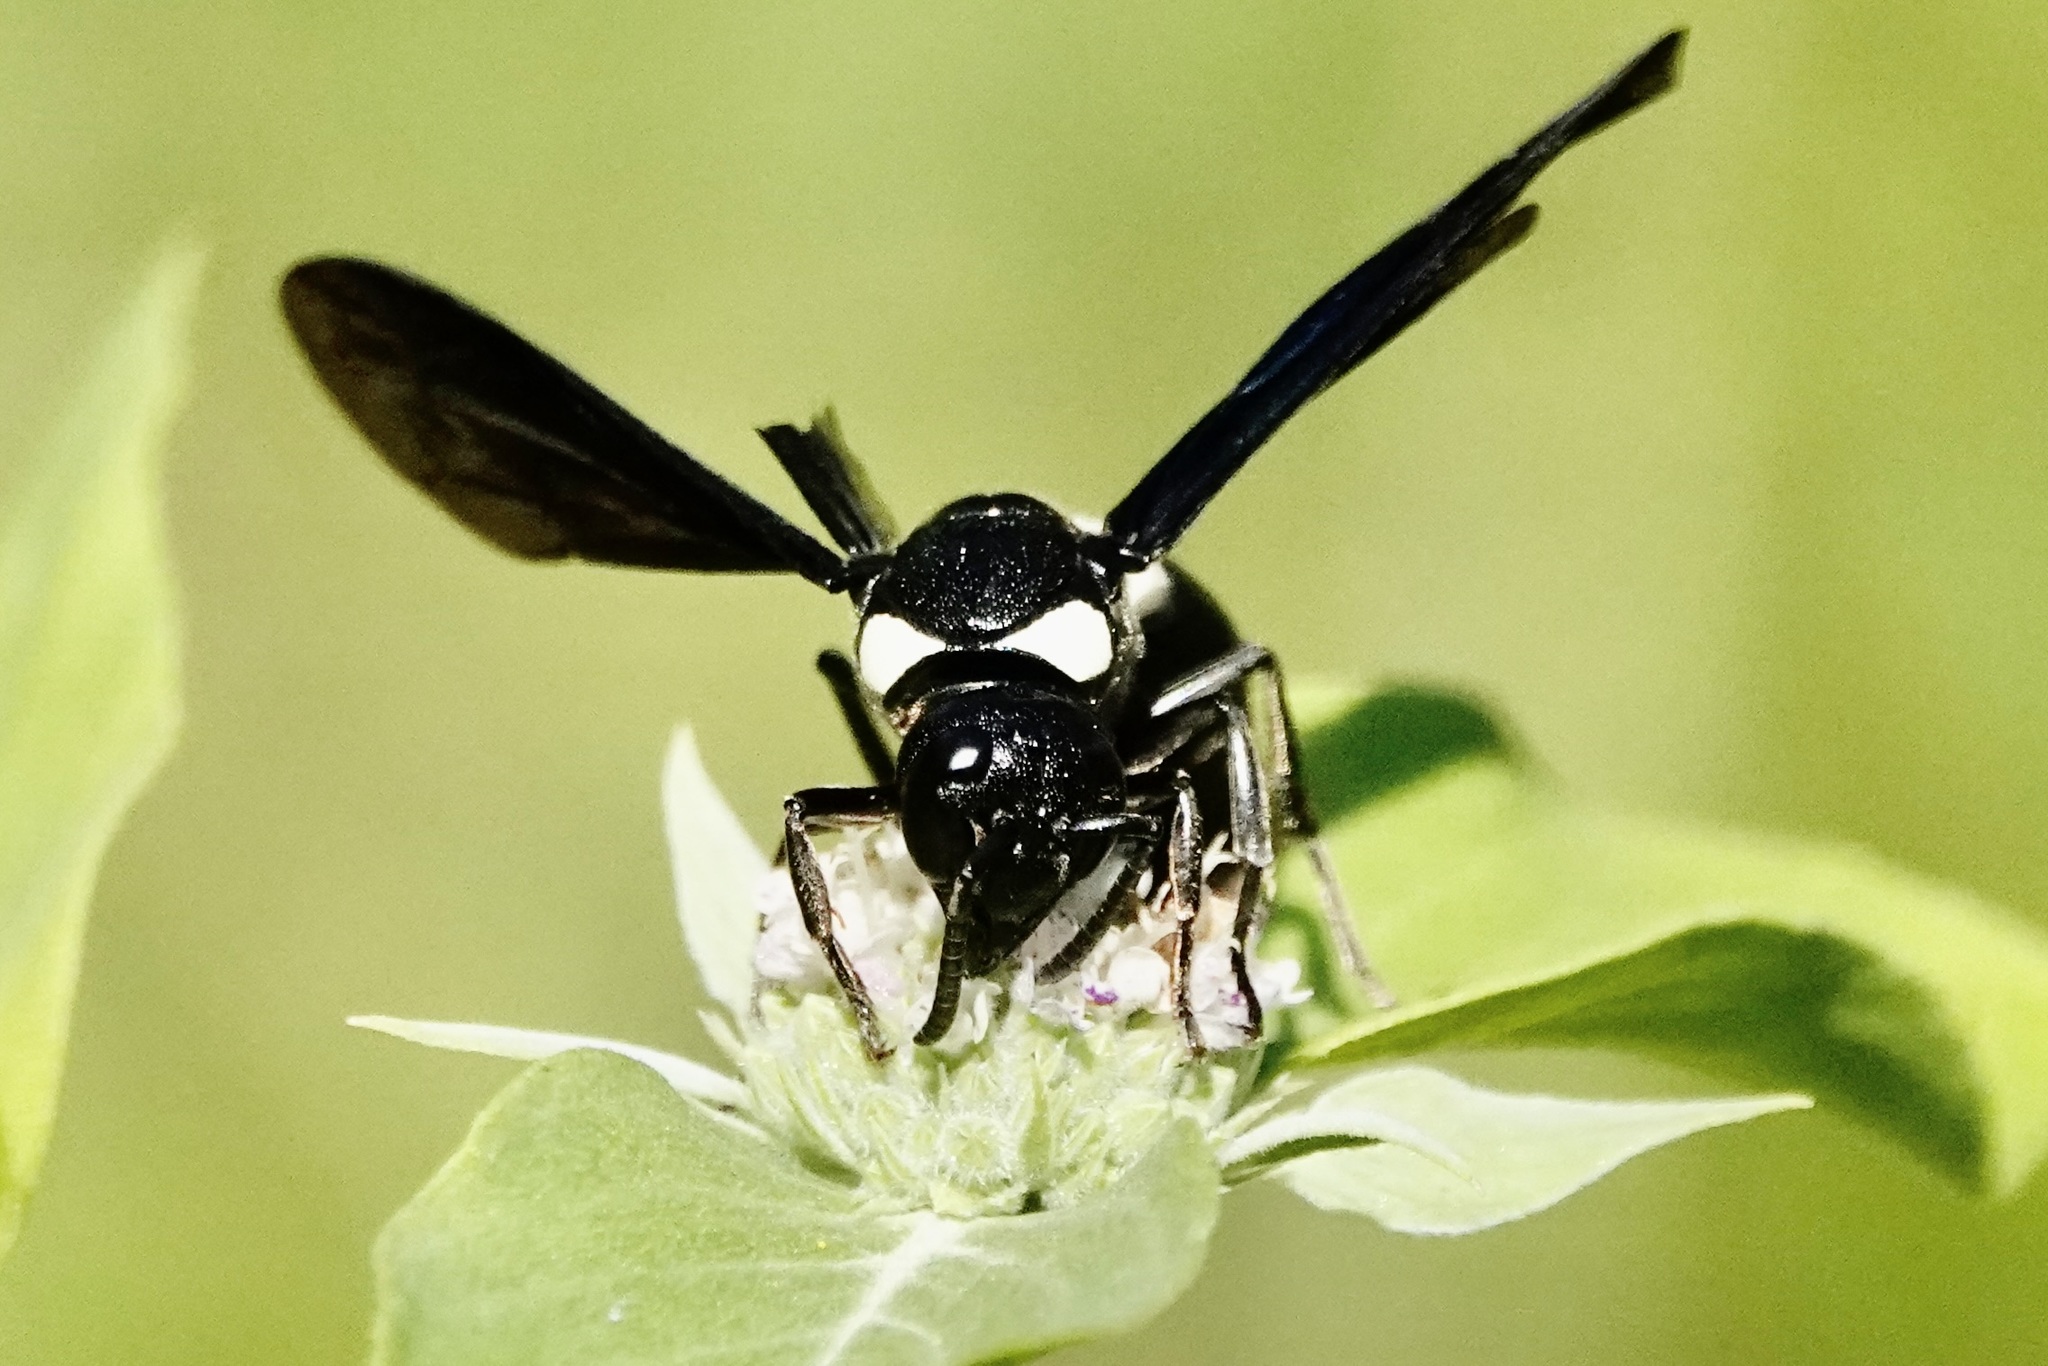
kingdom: Animalia
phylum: Arthropoda
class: Insecta
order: Hymenoptera
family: Eumenidae
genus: Monobia
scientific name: Monobia quadridens
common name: Four-toothed mason wasp
